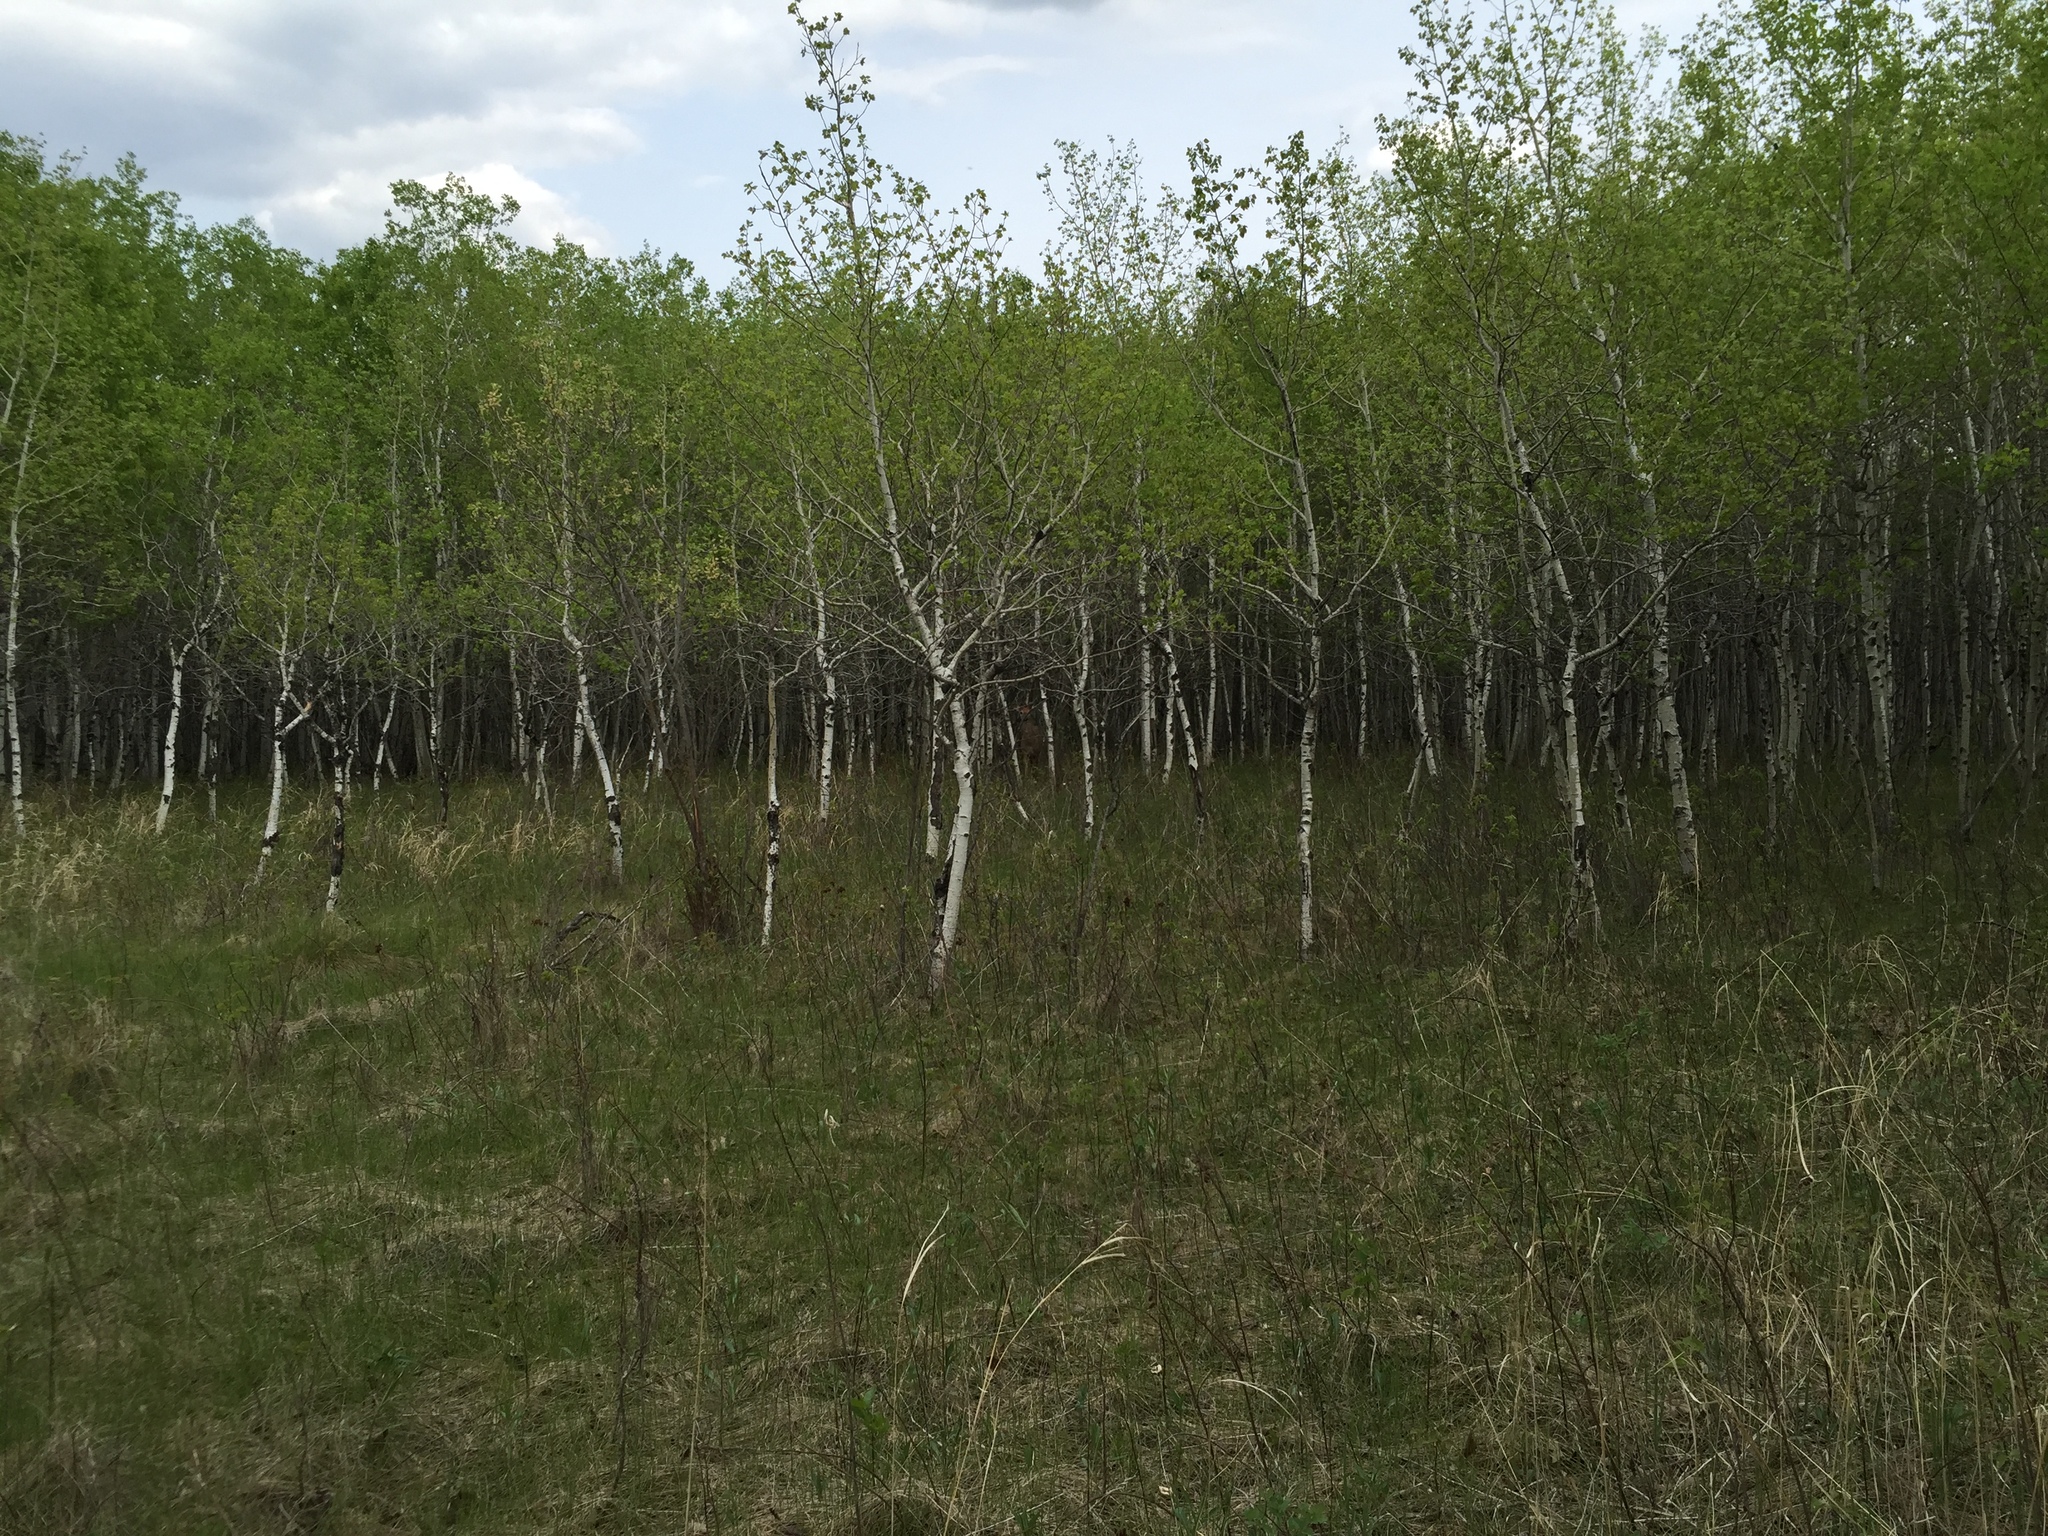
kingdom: Plantae
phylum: Tracheophyta
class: Magnoliopsida
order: Malpighiales
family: Salicaceae
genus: Populus
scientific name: Populus tremuloides
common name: Quaking aspen
